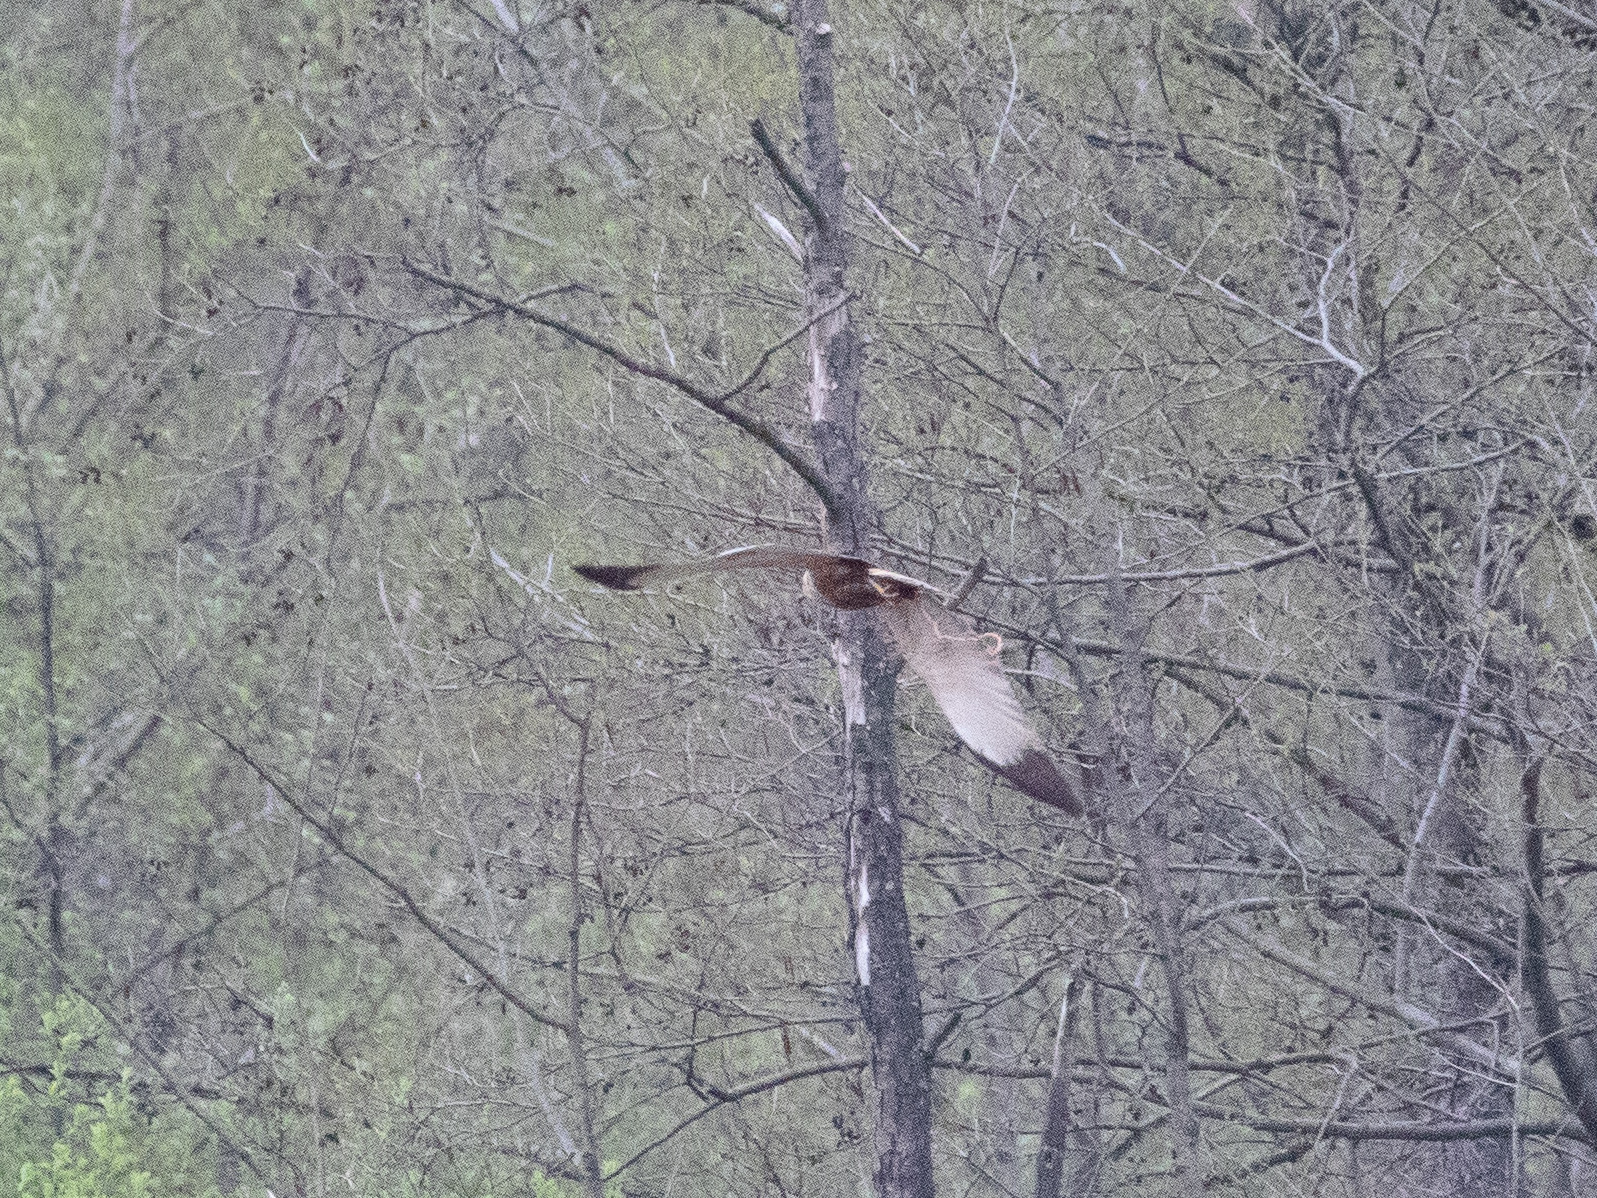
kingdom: Animalia
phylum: Chordata
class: Aves
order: Accipitriformes
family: Accipitridae
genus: Circus
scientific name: Circus aeruginosus
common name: Western marsh harrier
